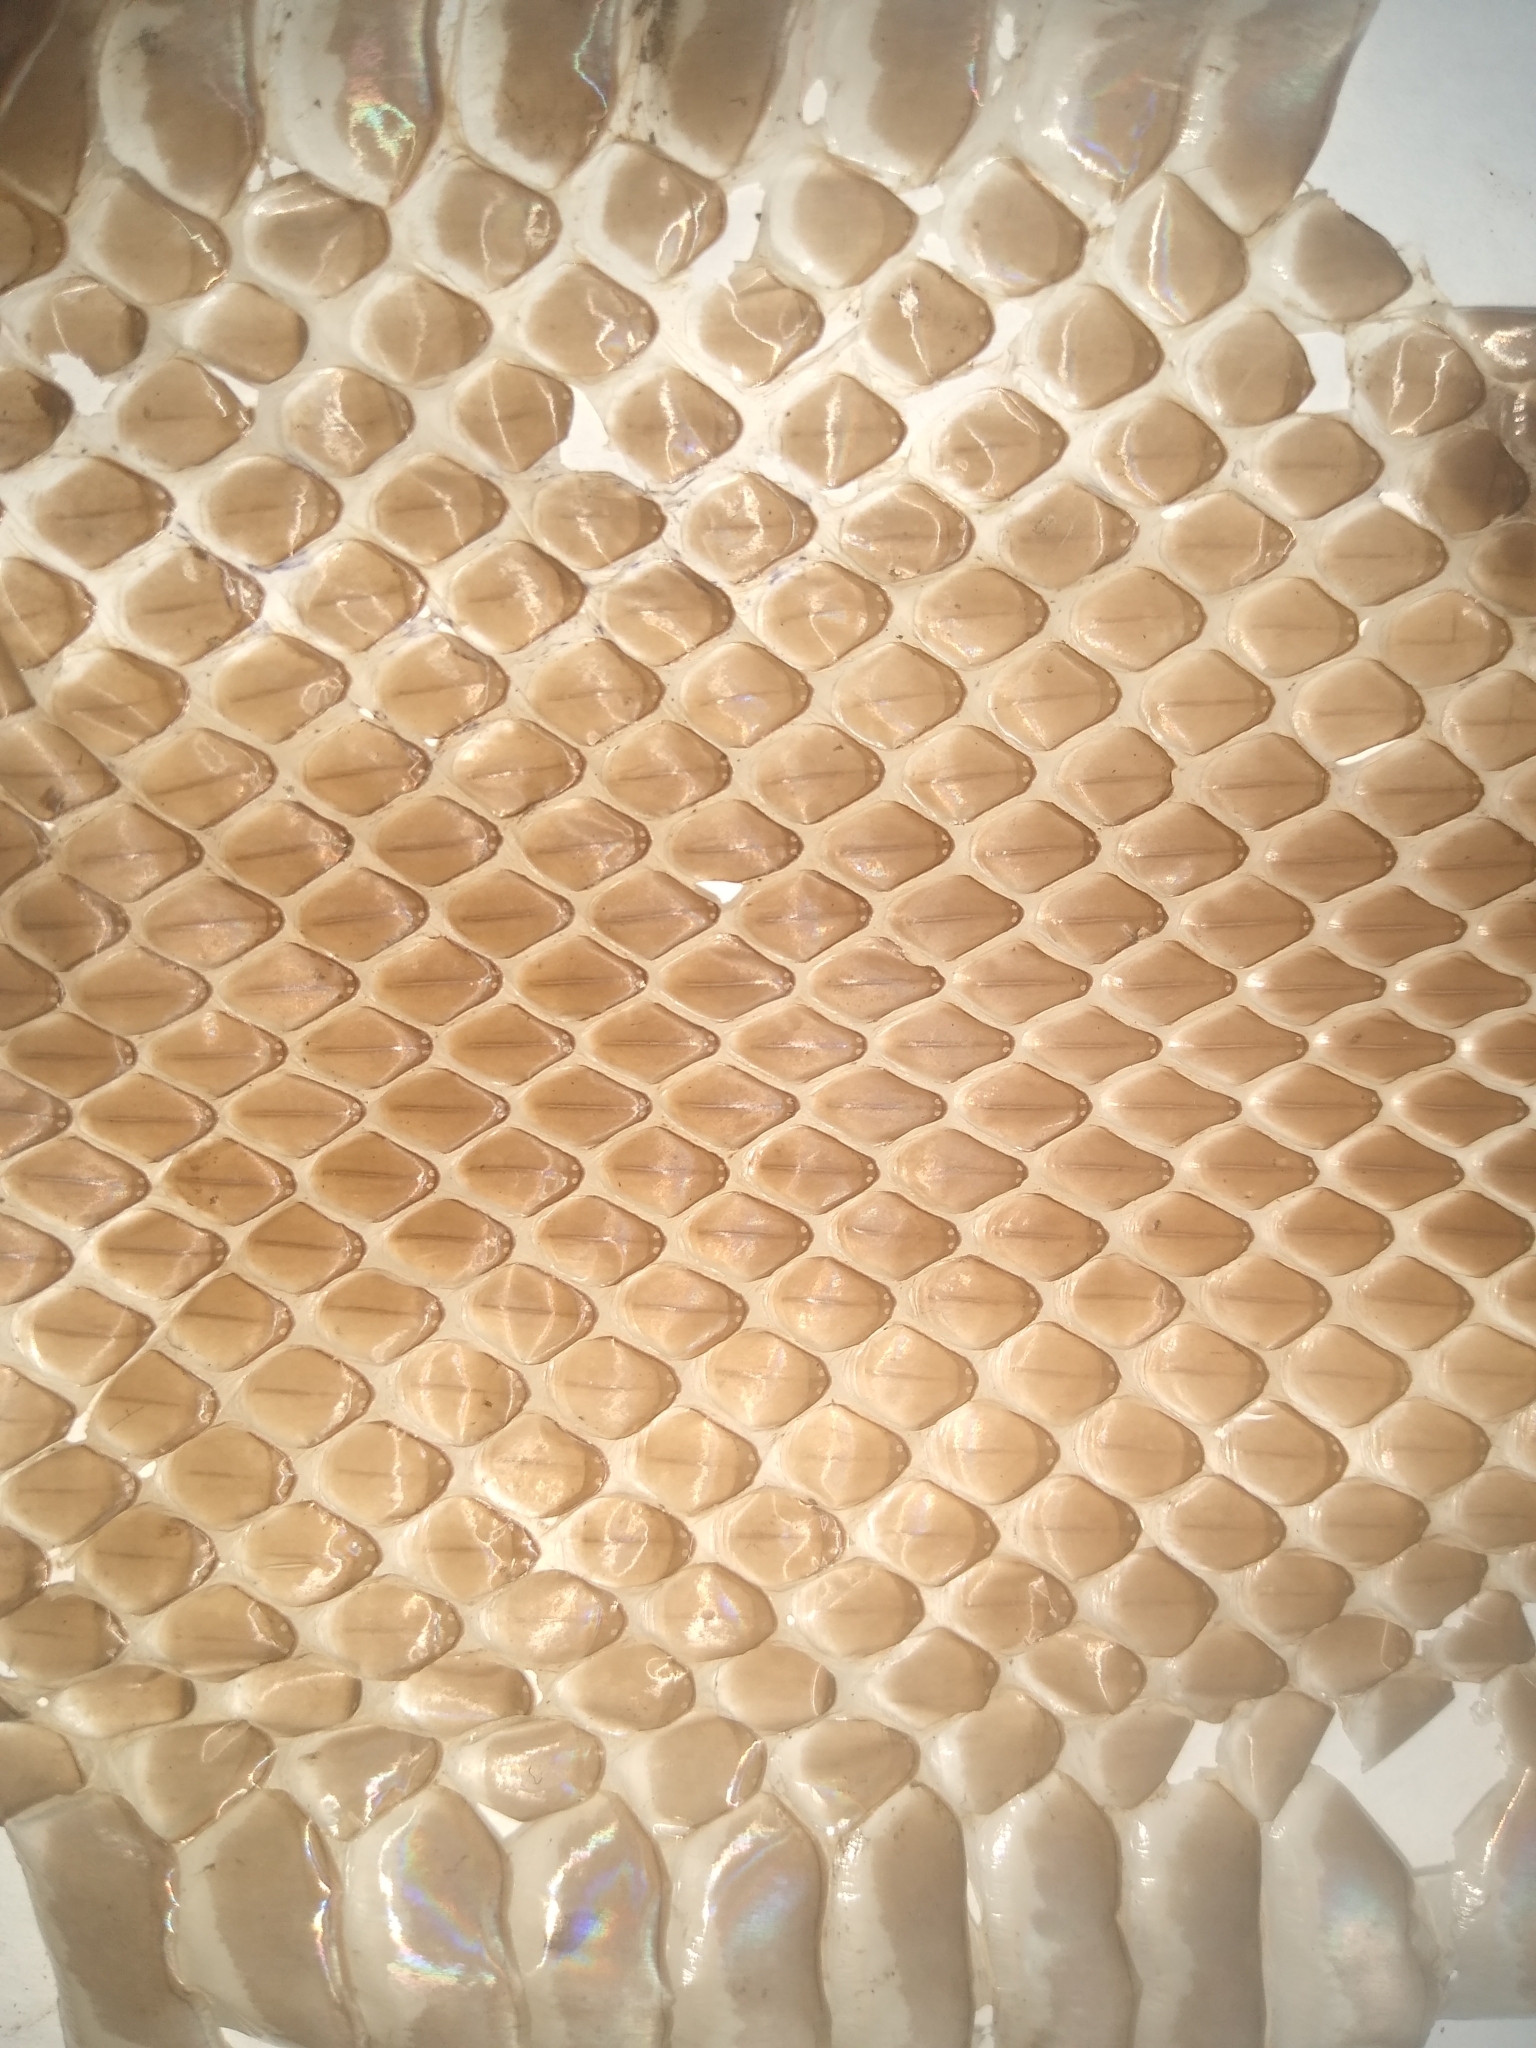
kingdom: Animalia
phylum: Chordata
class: Squamata
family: Colubridae
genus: Pantherophis
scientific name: Pantherophis alleghaniensis
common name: Eastern rat snake
